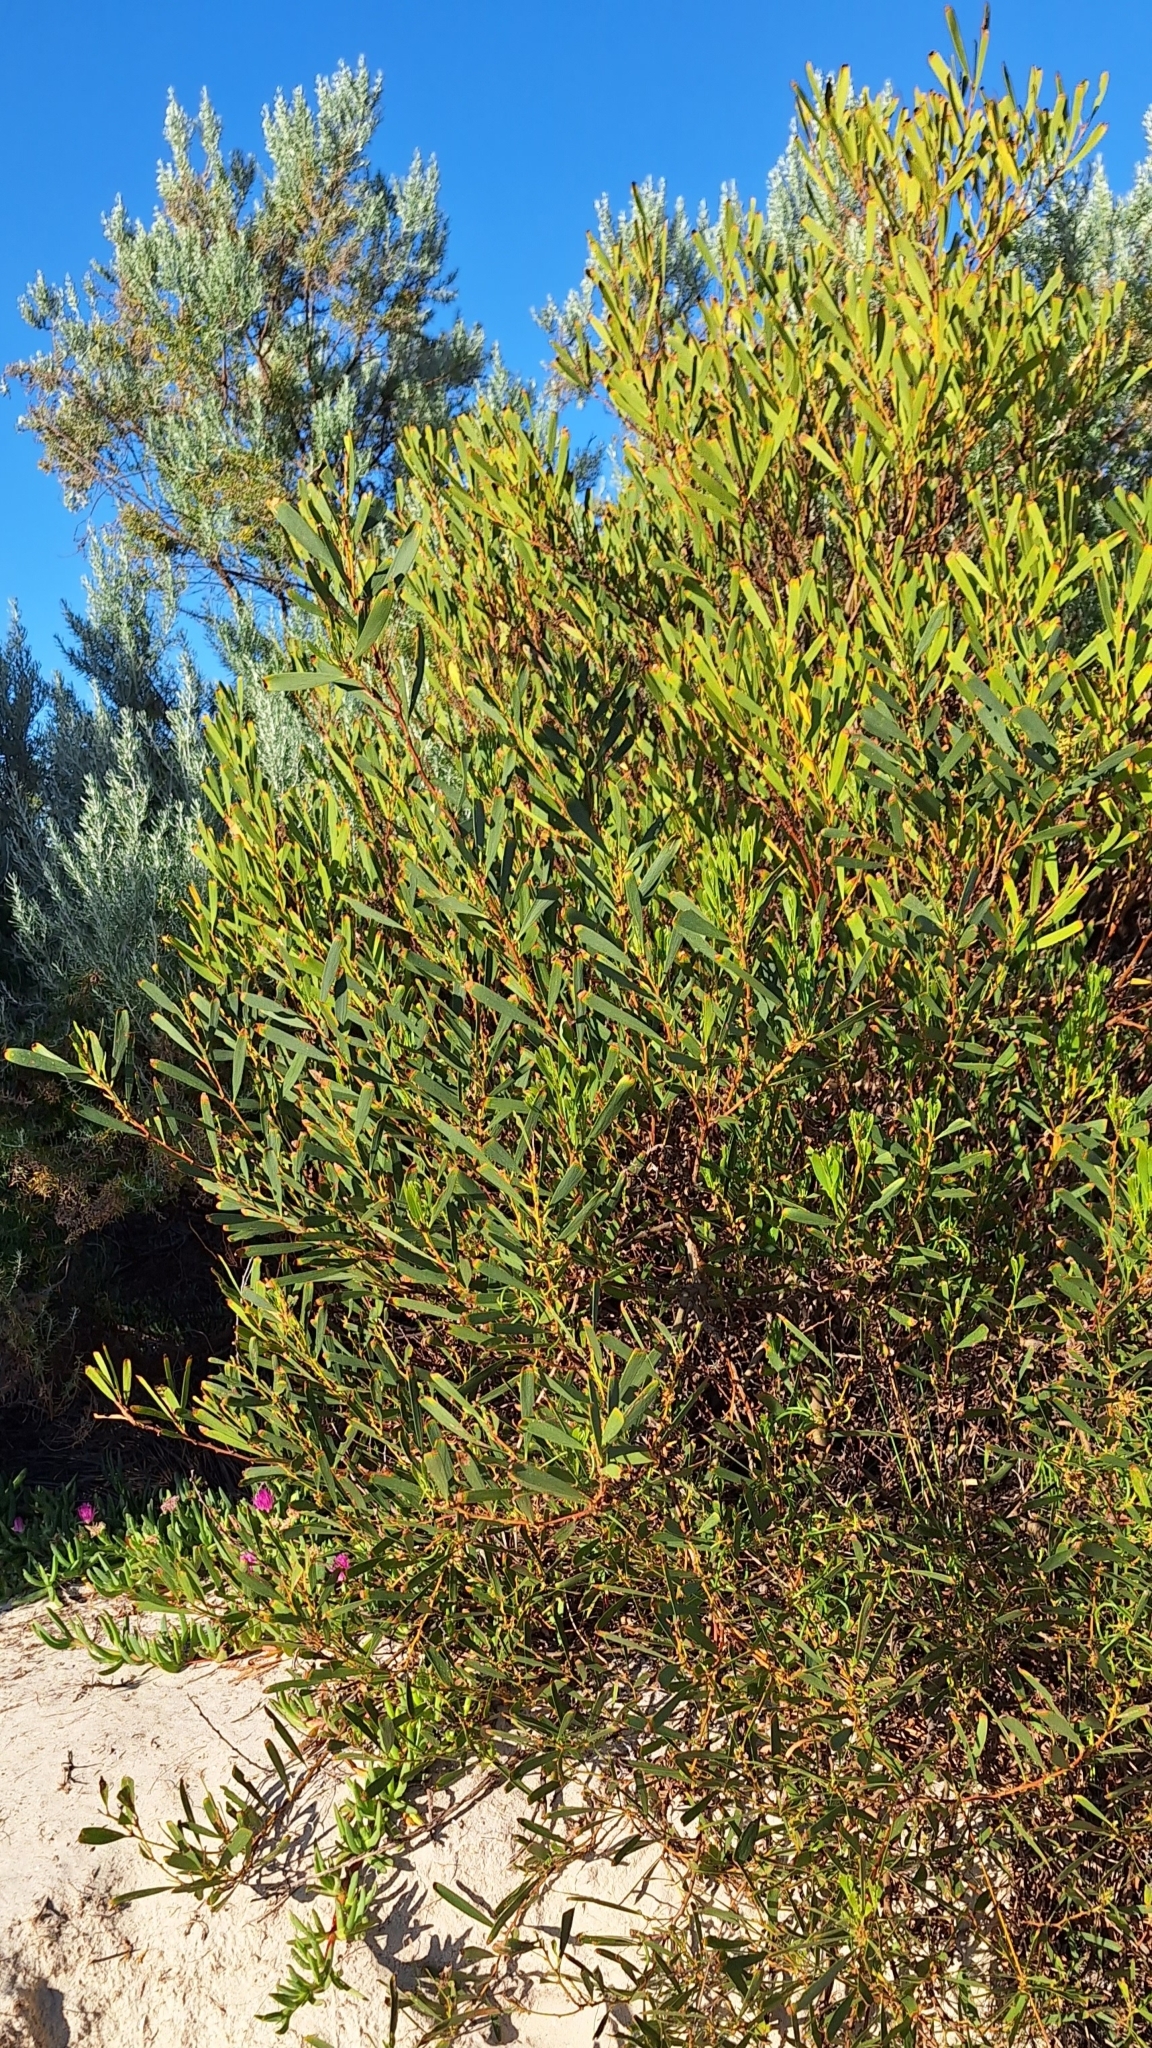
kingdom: Plantae
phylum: Tracheophyta
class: Magnoliopsida
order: Fabales
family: Fabaceae
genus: Acacia
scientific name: Acacia longifolia
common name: Sydney golden wattle
